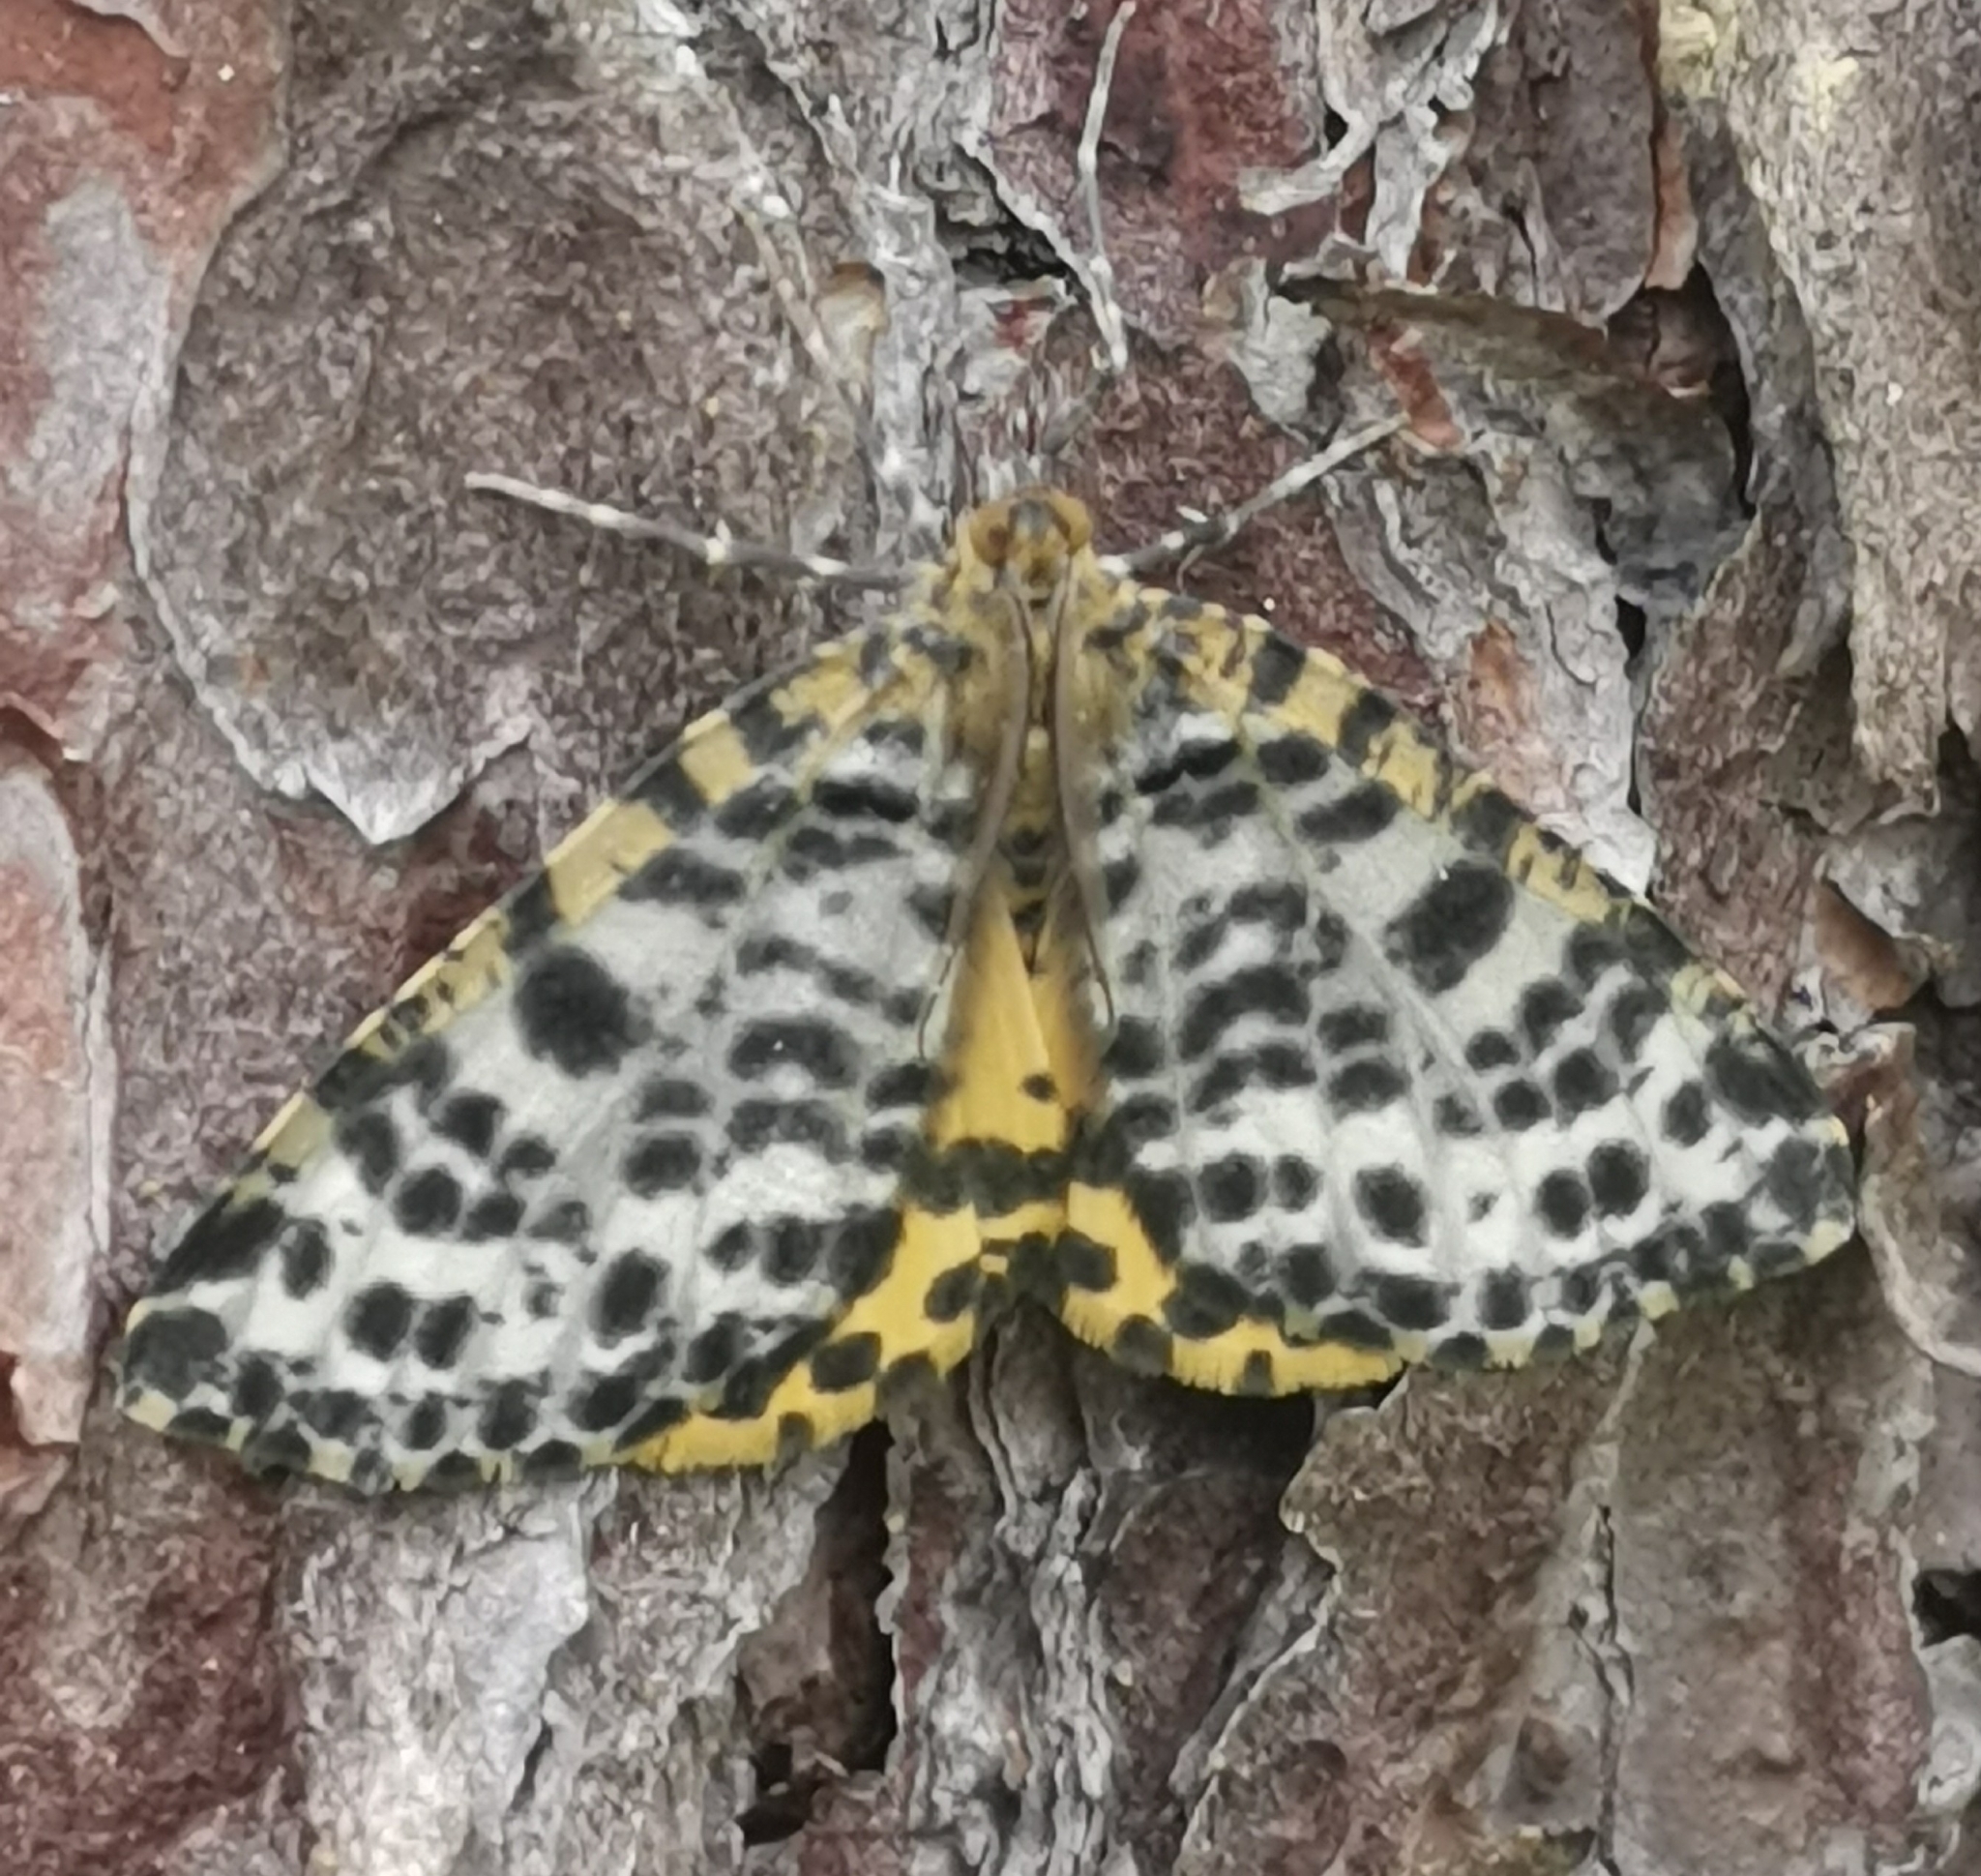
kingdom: Animalia
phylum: Arthropoda
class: Insecta
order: Lepidoptera
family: Geometridae
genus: Arichanna
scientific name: Arichanna melanaria
